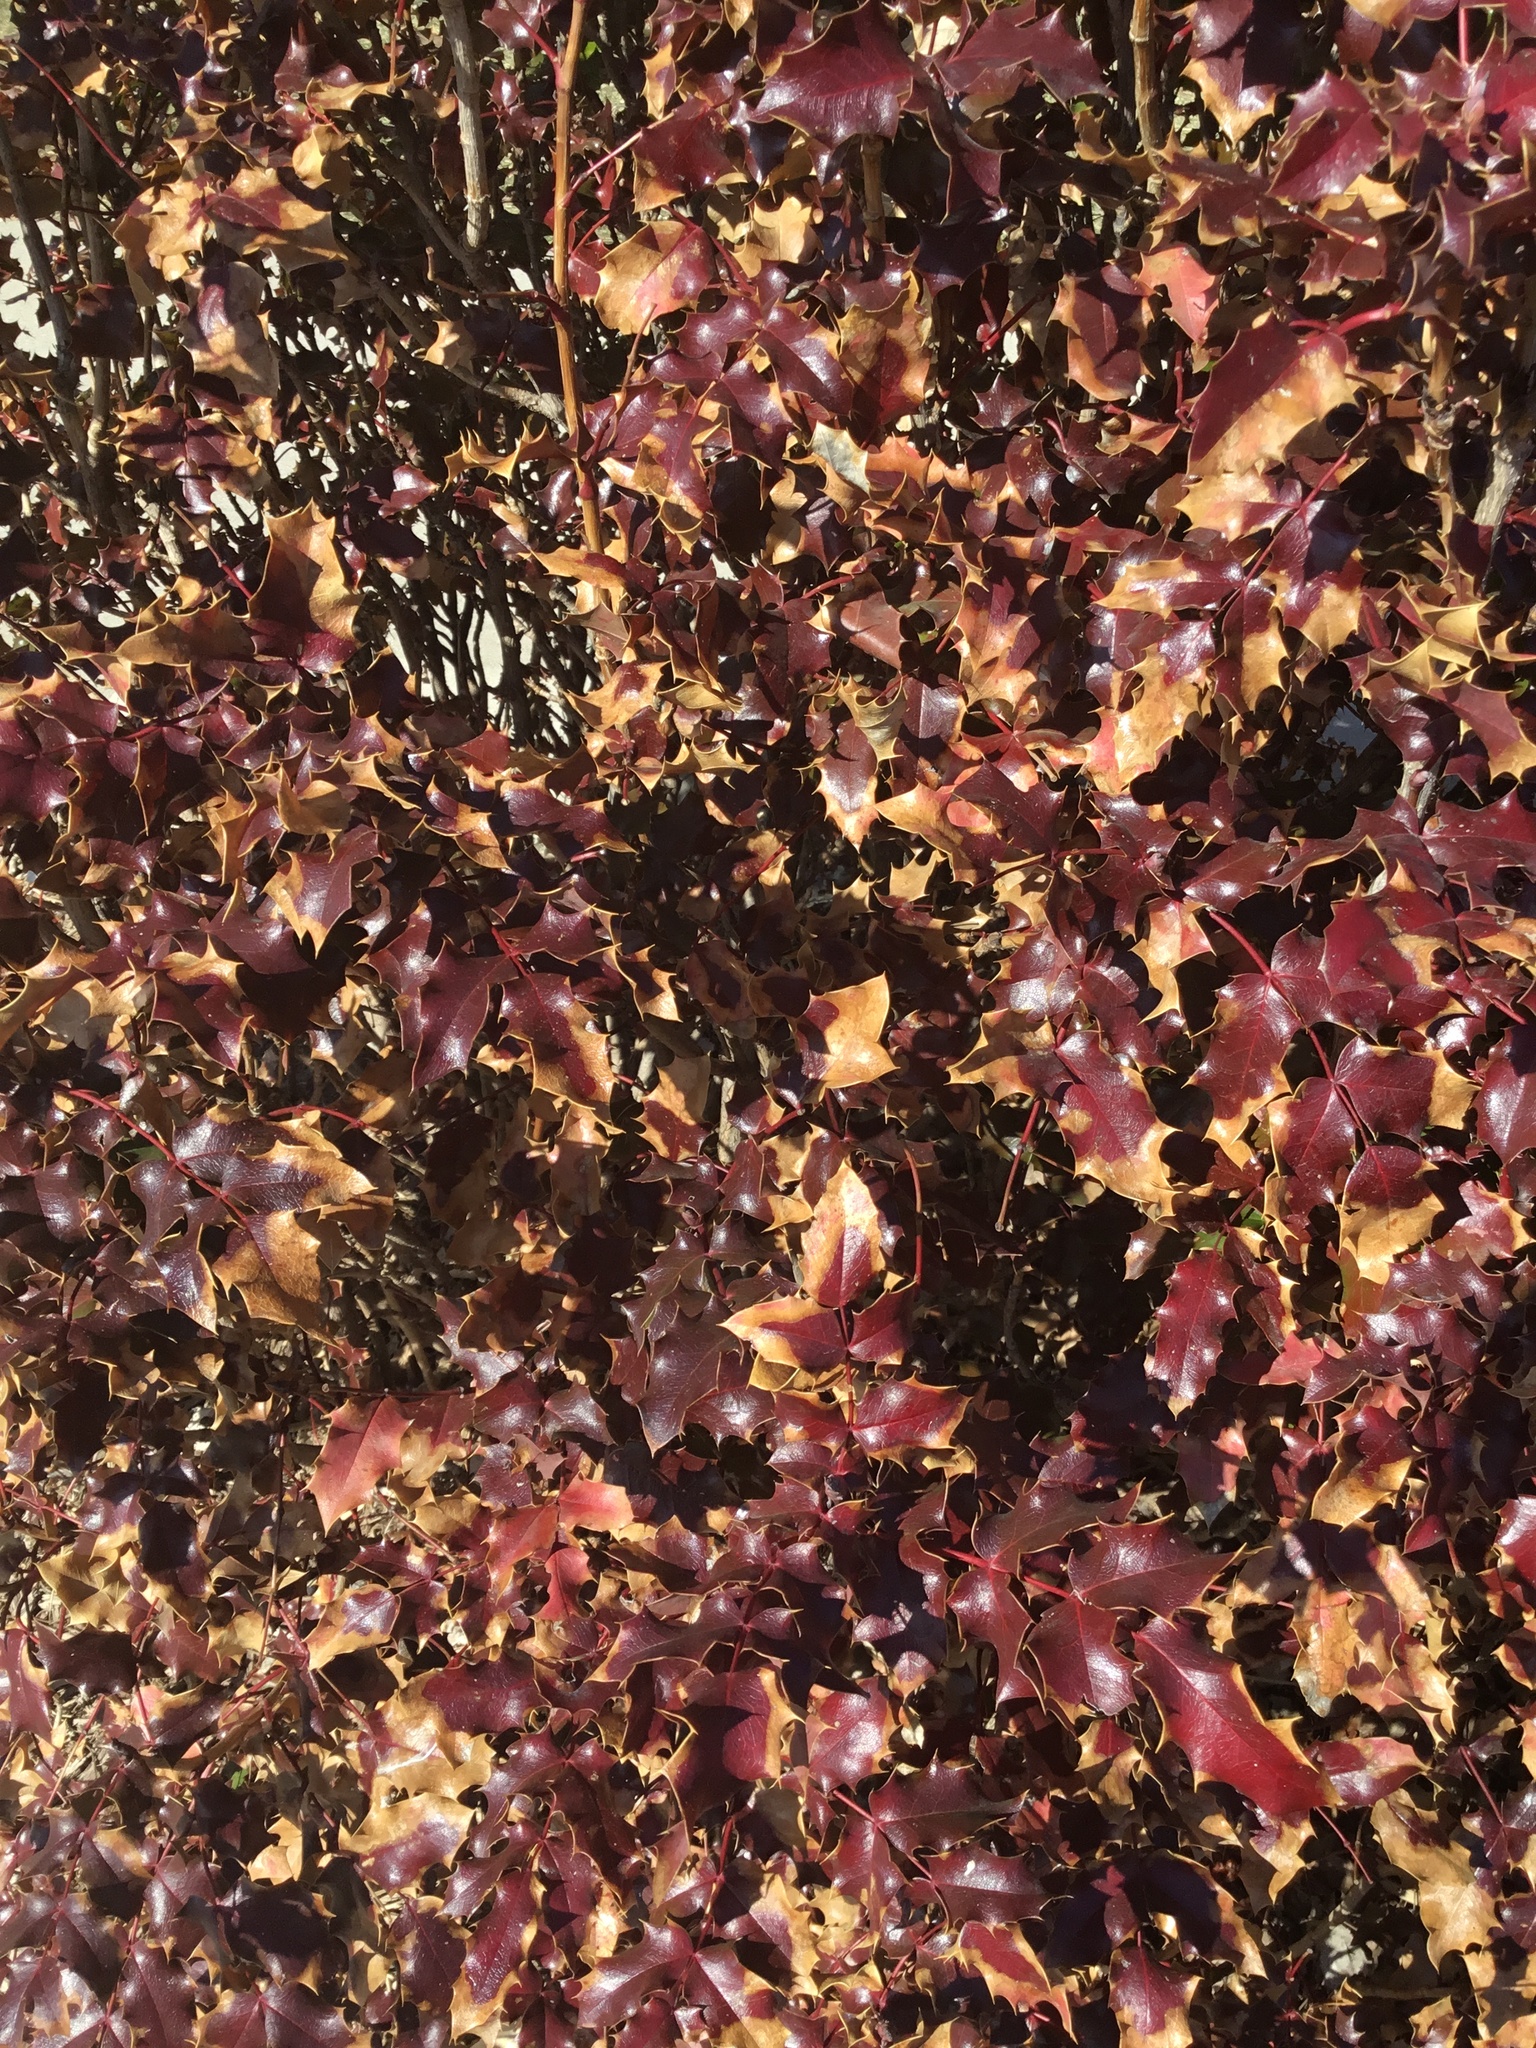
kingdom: Plantae
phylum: Tracheophyta
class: Magnoliopsida
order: Ranunculales
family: Berberidaceae
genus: Mahonia
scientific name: Mahonia aquifolium
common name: Oregon-grape
